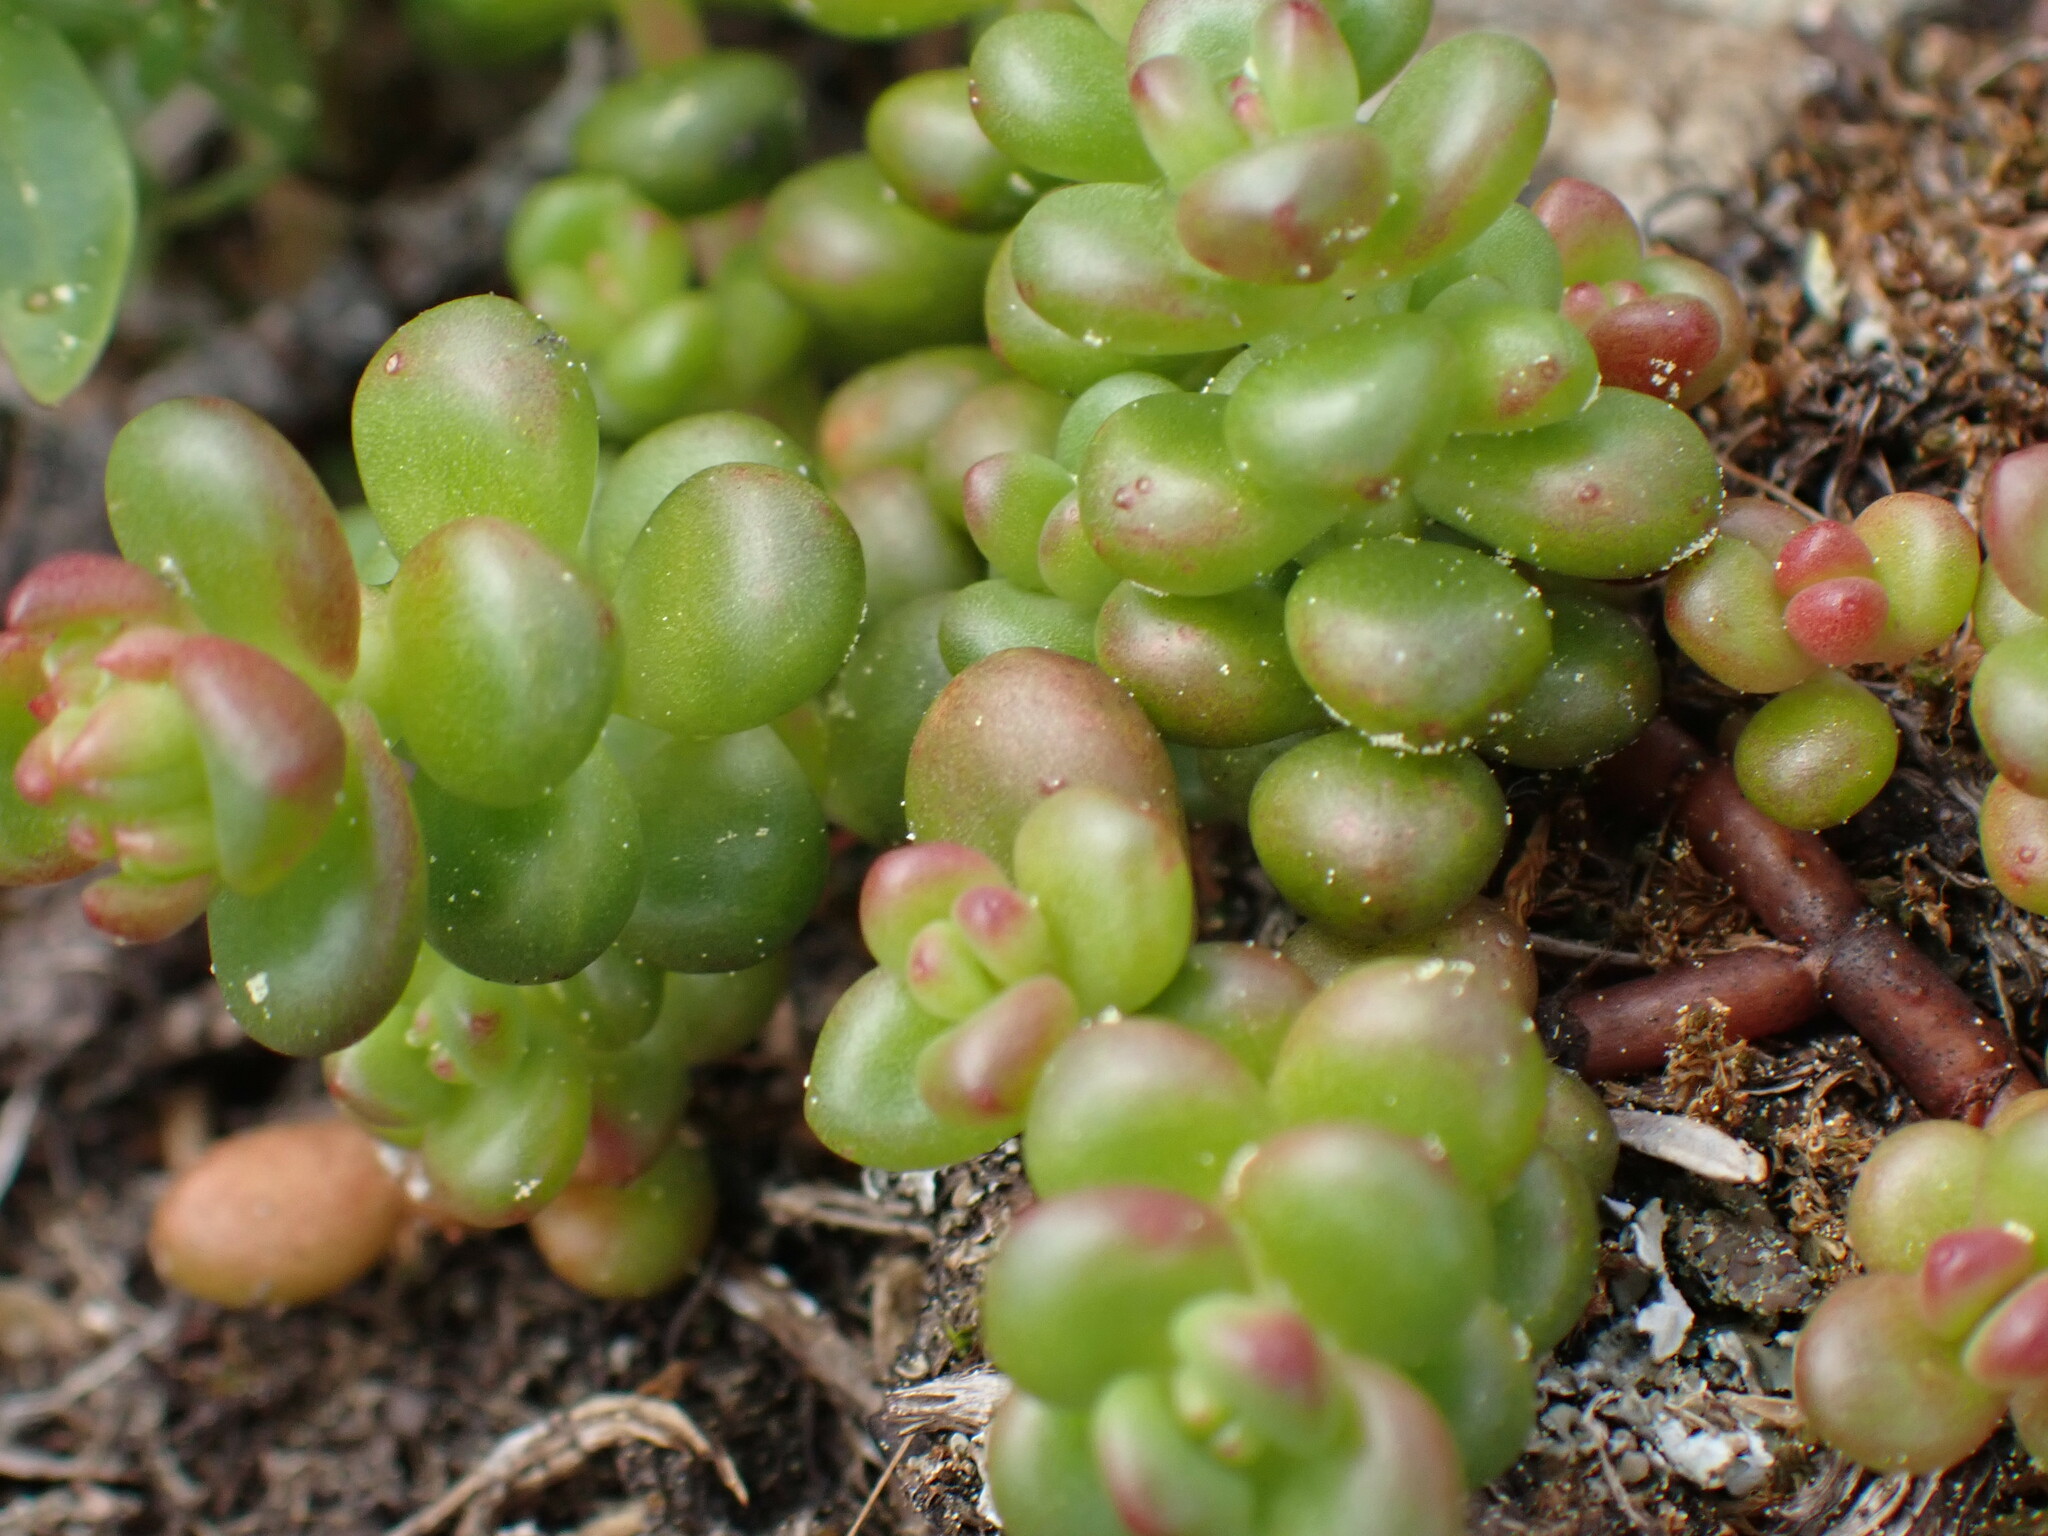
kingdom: Plantae
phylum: Tracheophyta
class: Magnoliopsida
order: Saxifragales
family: Crassulaceae
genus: Sedum
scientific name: Sedum divergens
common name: Cascade stonecrop
